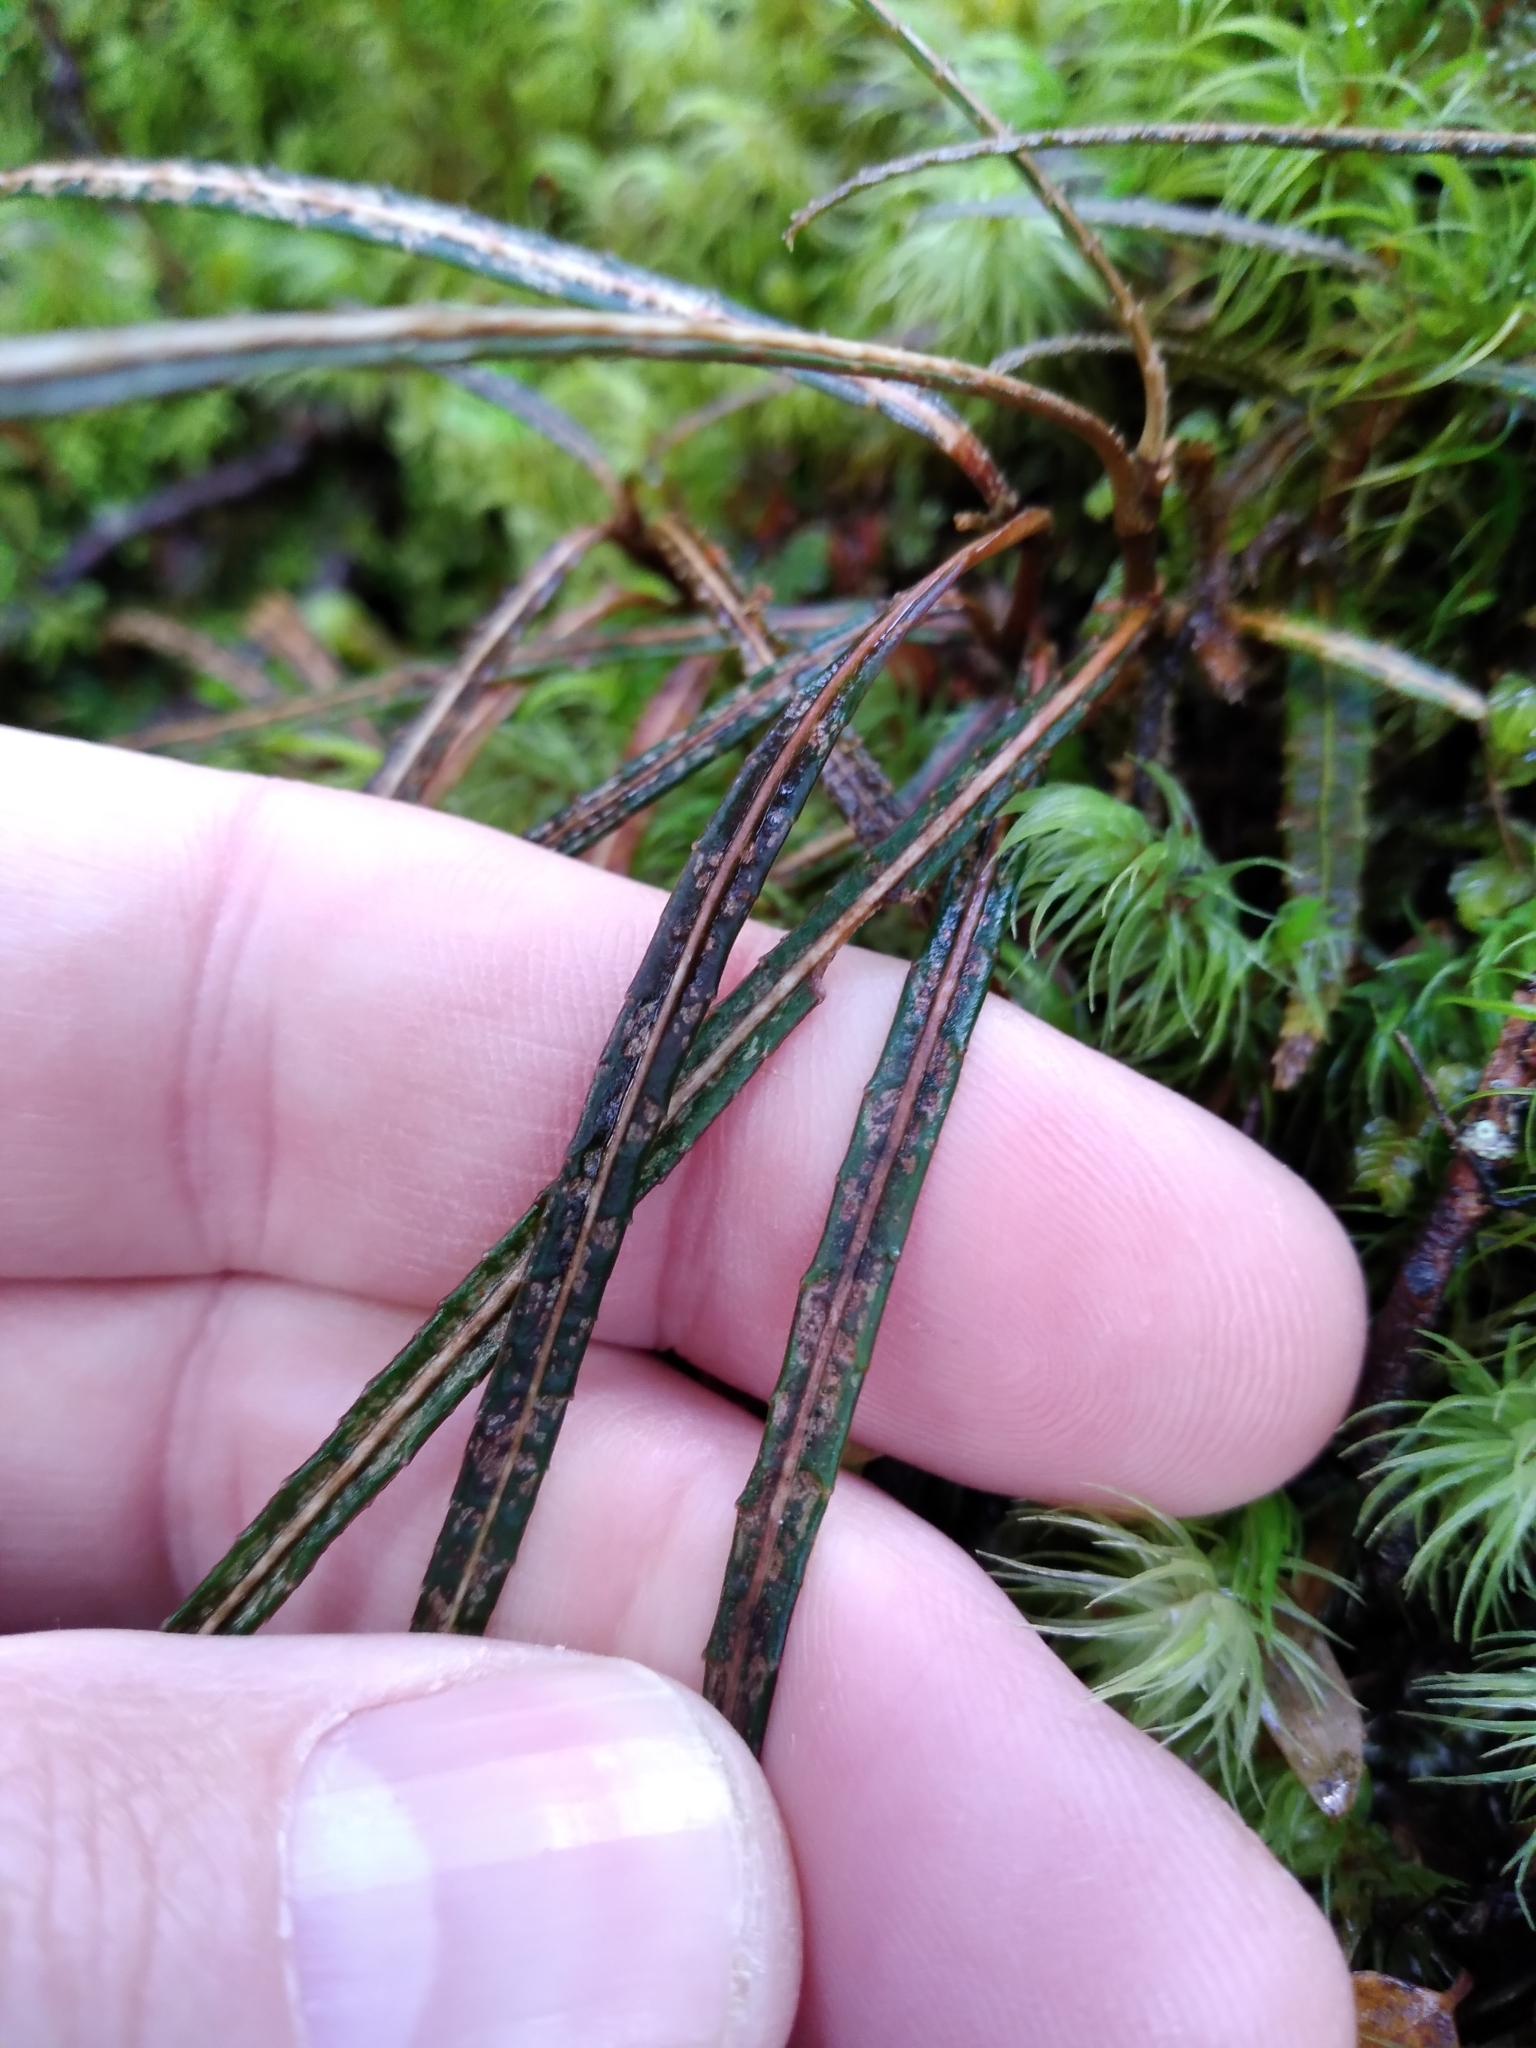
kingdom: Plantae
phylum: Tracheophyta
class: Magnoliopsida
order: Apiales
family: Araliaceae
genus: Pseudopanax
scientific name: Pseudopanax linearis
